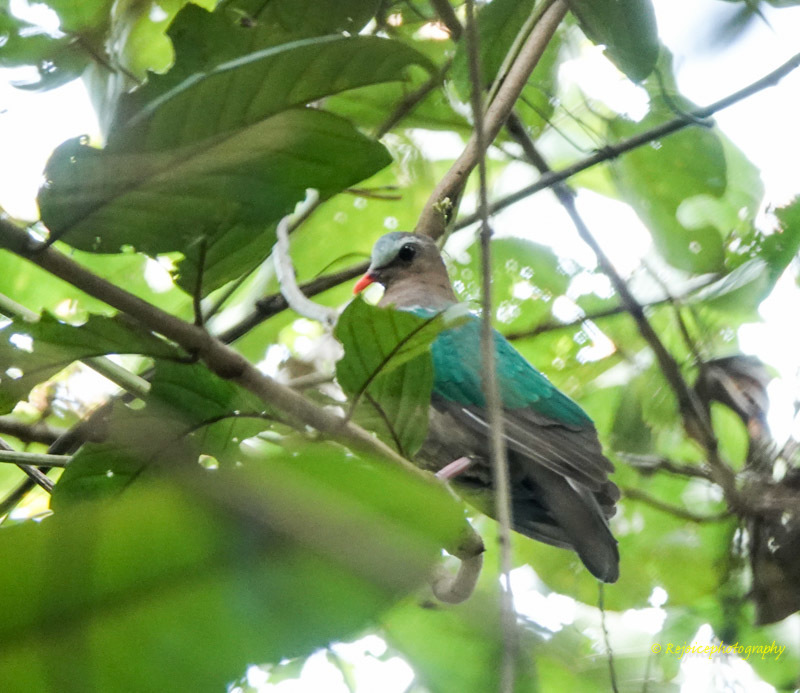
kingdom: Animalia
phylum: Chordata
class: Aves
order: Columbiformes
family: Columbidae
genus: Chalcophaps
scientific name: Chalcophaps indica
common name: Common emerald dove
